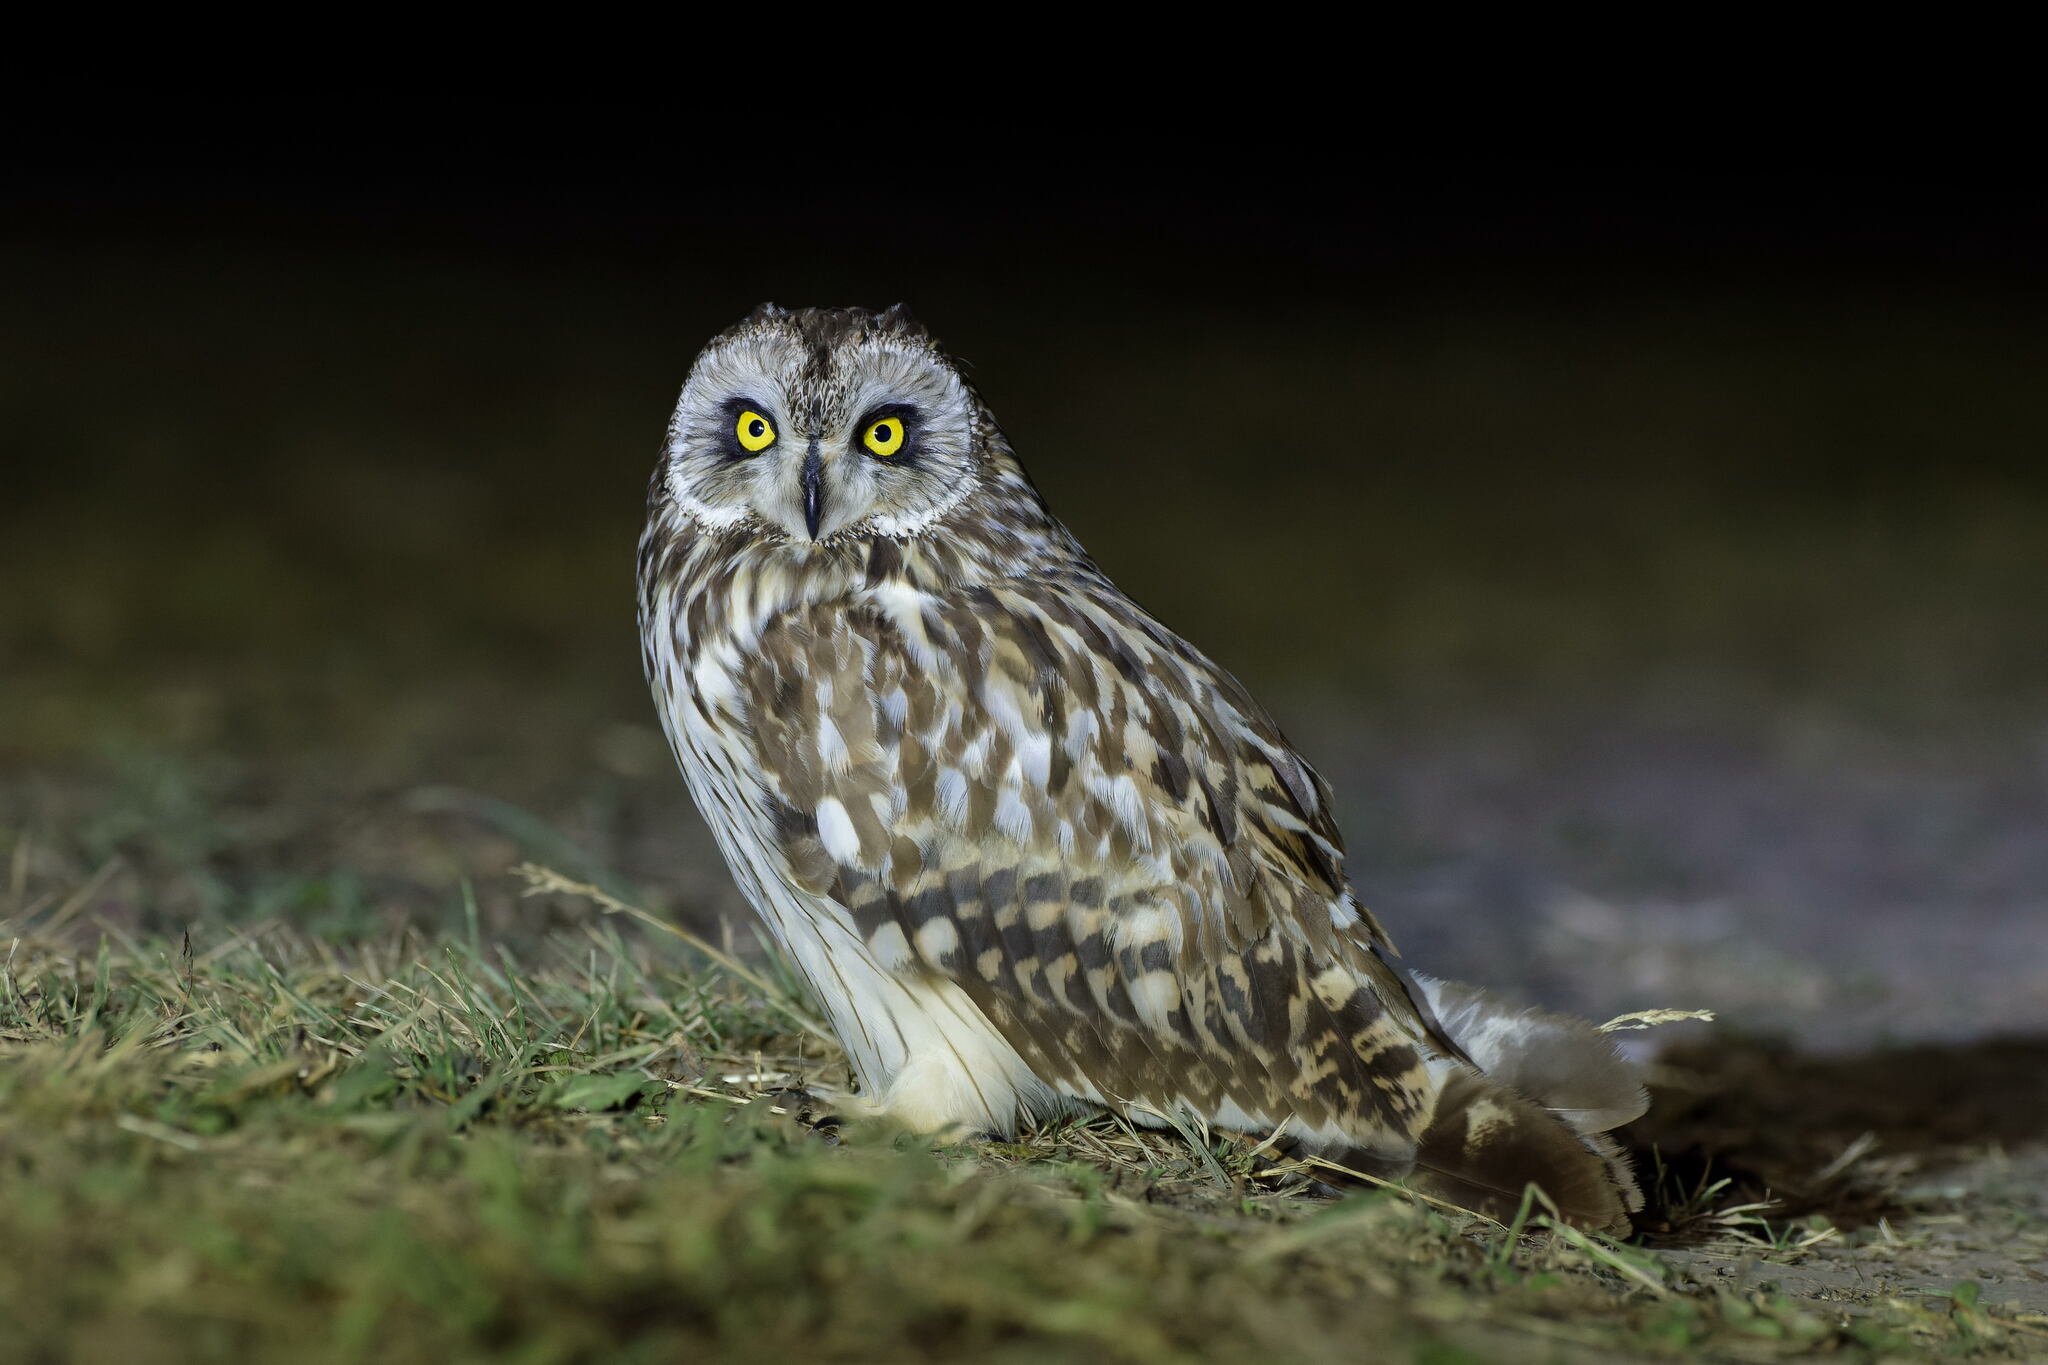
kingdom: Animalia
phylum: Chordata
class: Aves
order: Strigiformes
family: Strigidae
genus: Asio
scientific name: Asio flammeus
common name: Short-eared owl
